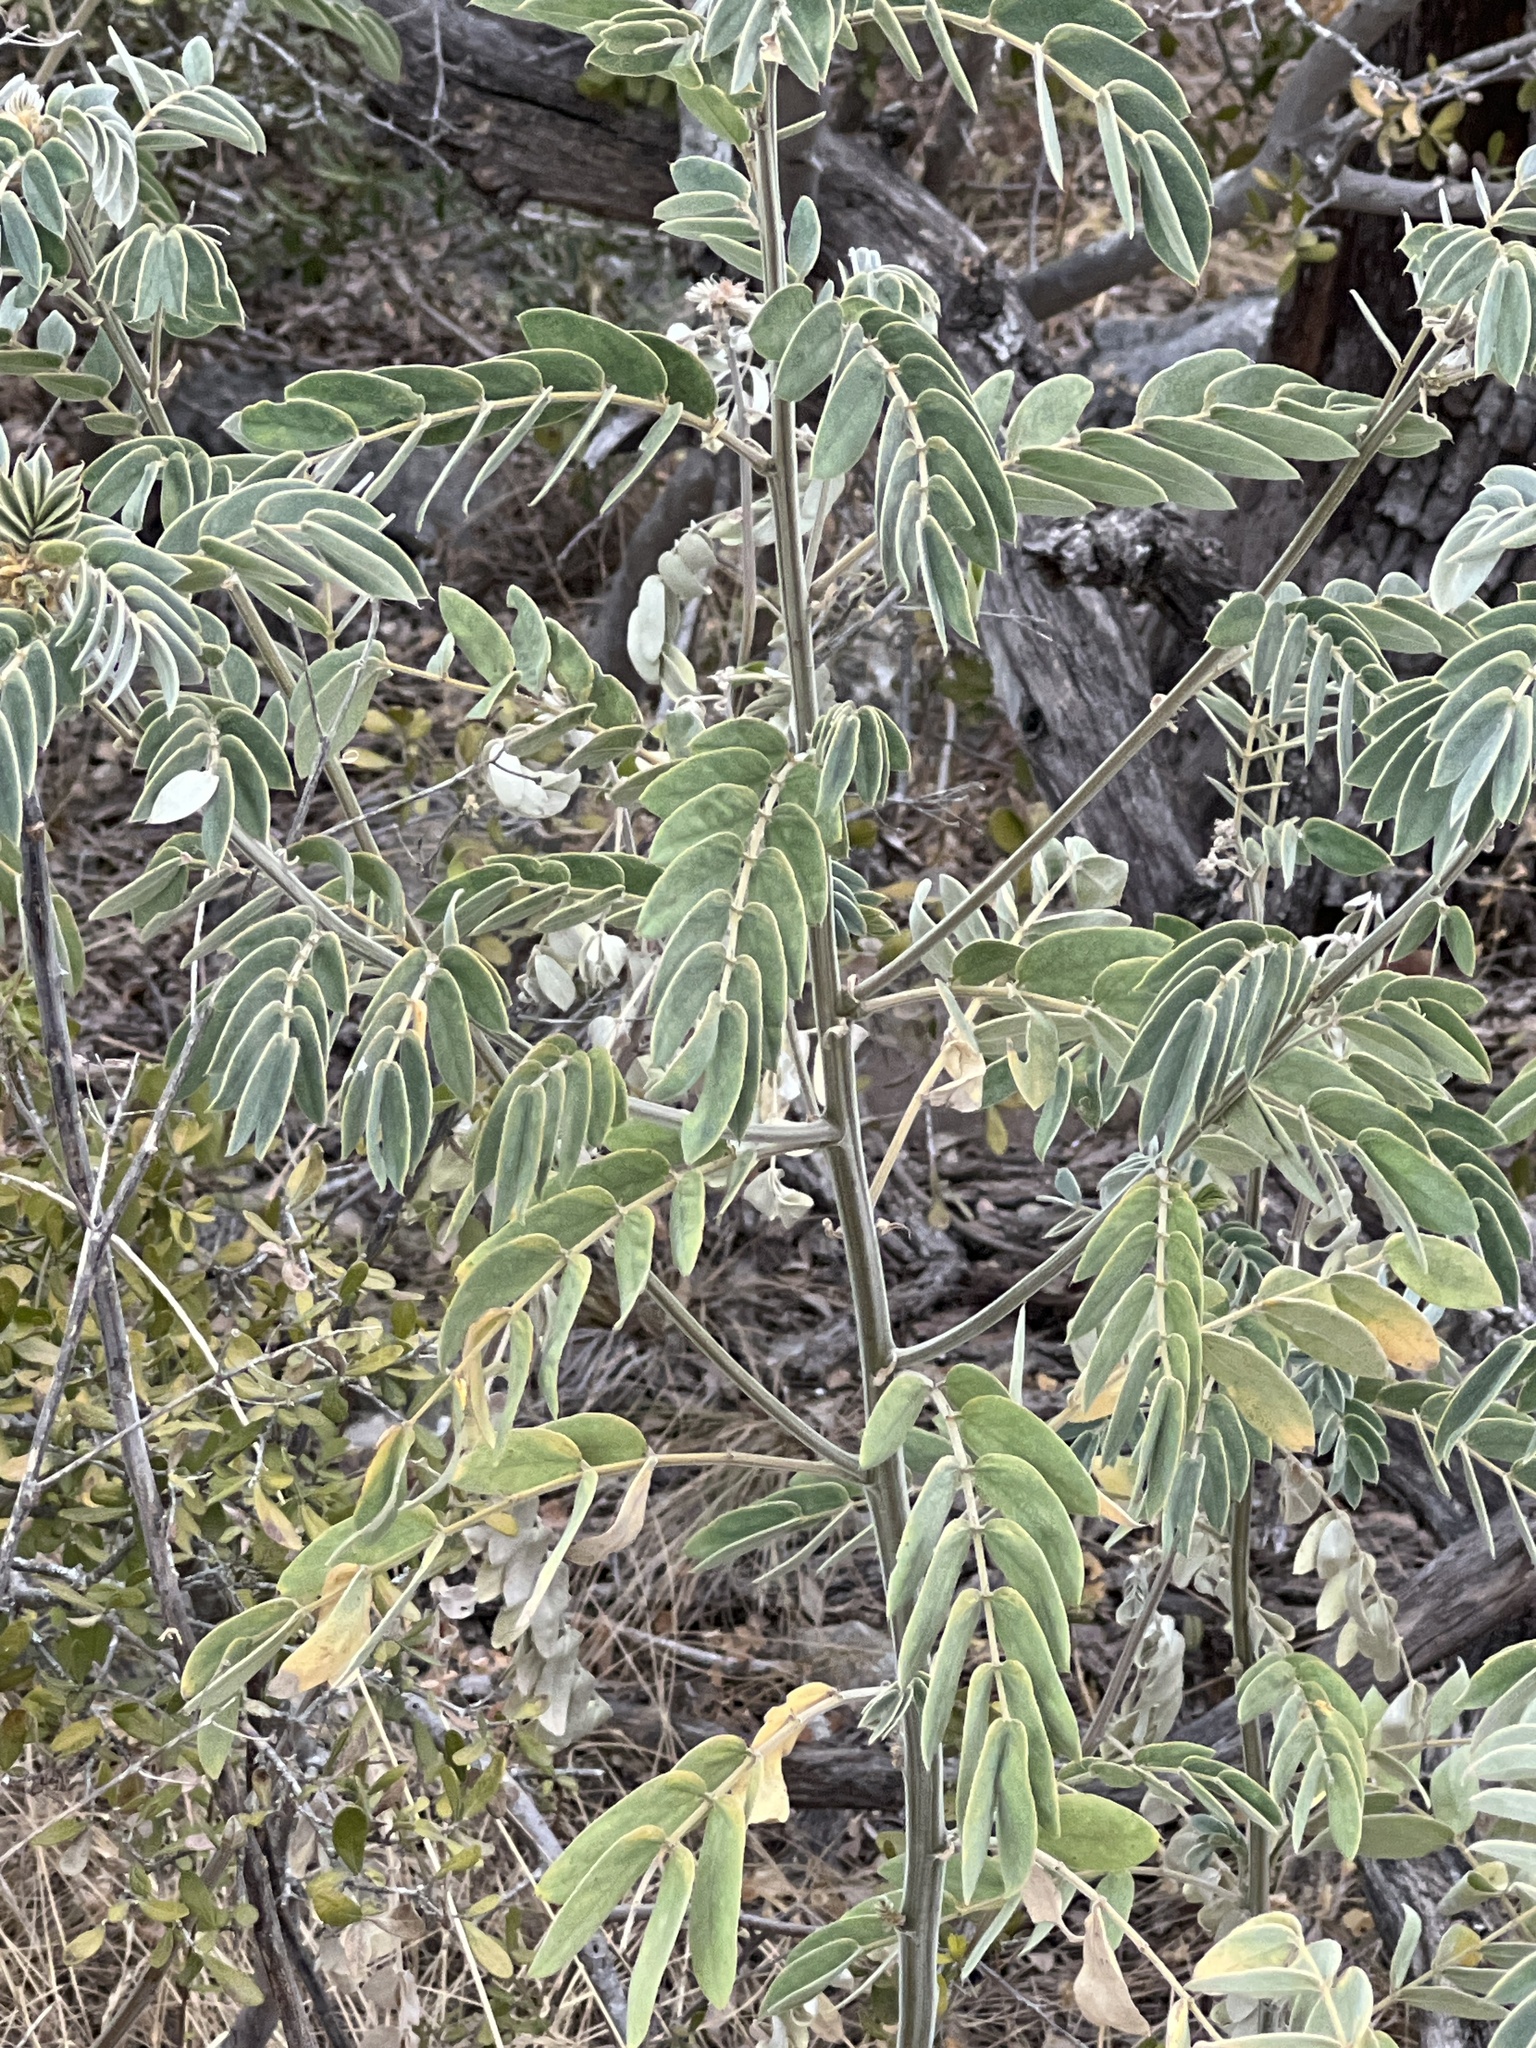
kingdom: Plantae
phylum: Tracheophyta
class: Magnoliopsida
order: Fabales
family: Fabaceae
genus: Senna
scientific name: Senna lindheimeriana
